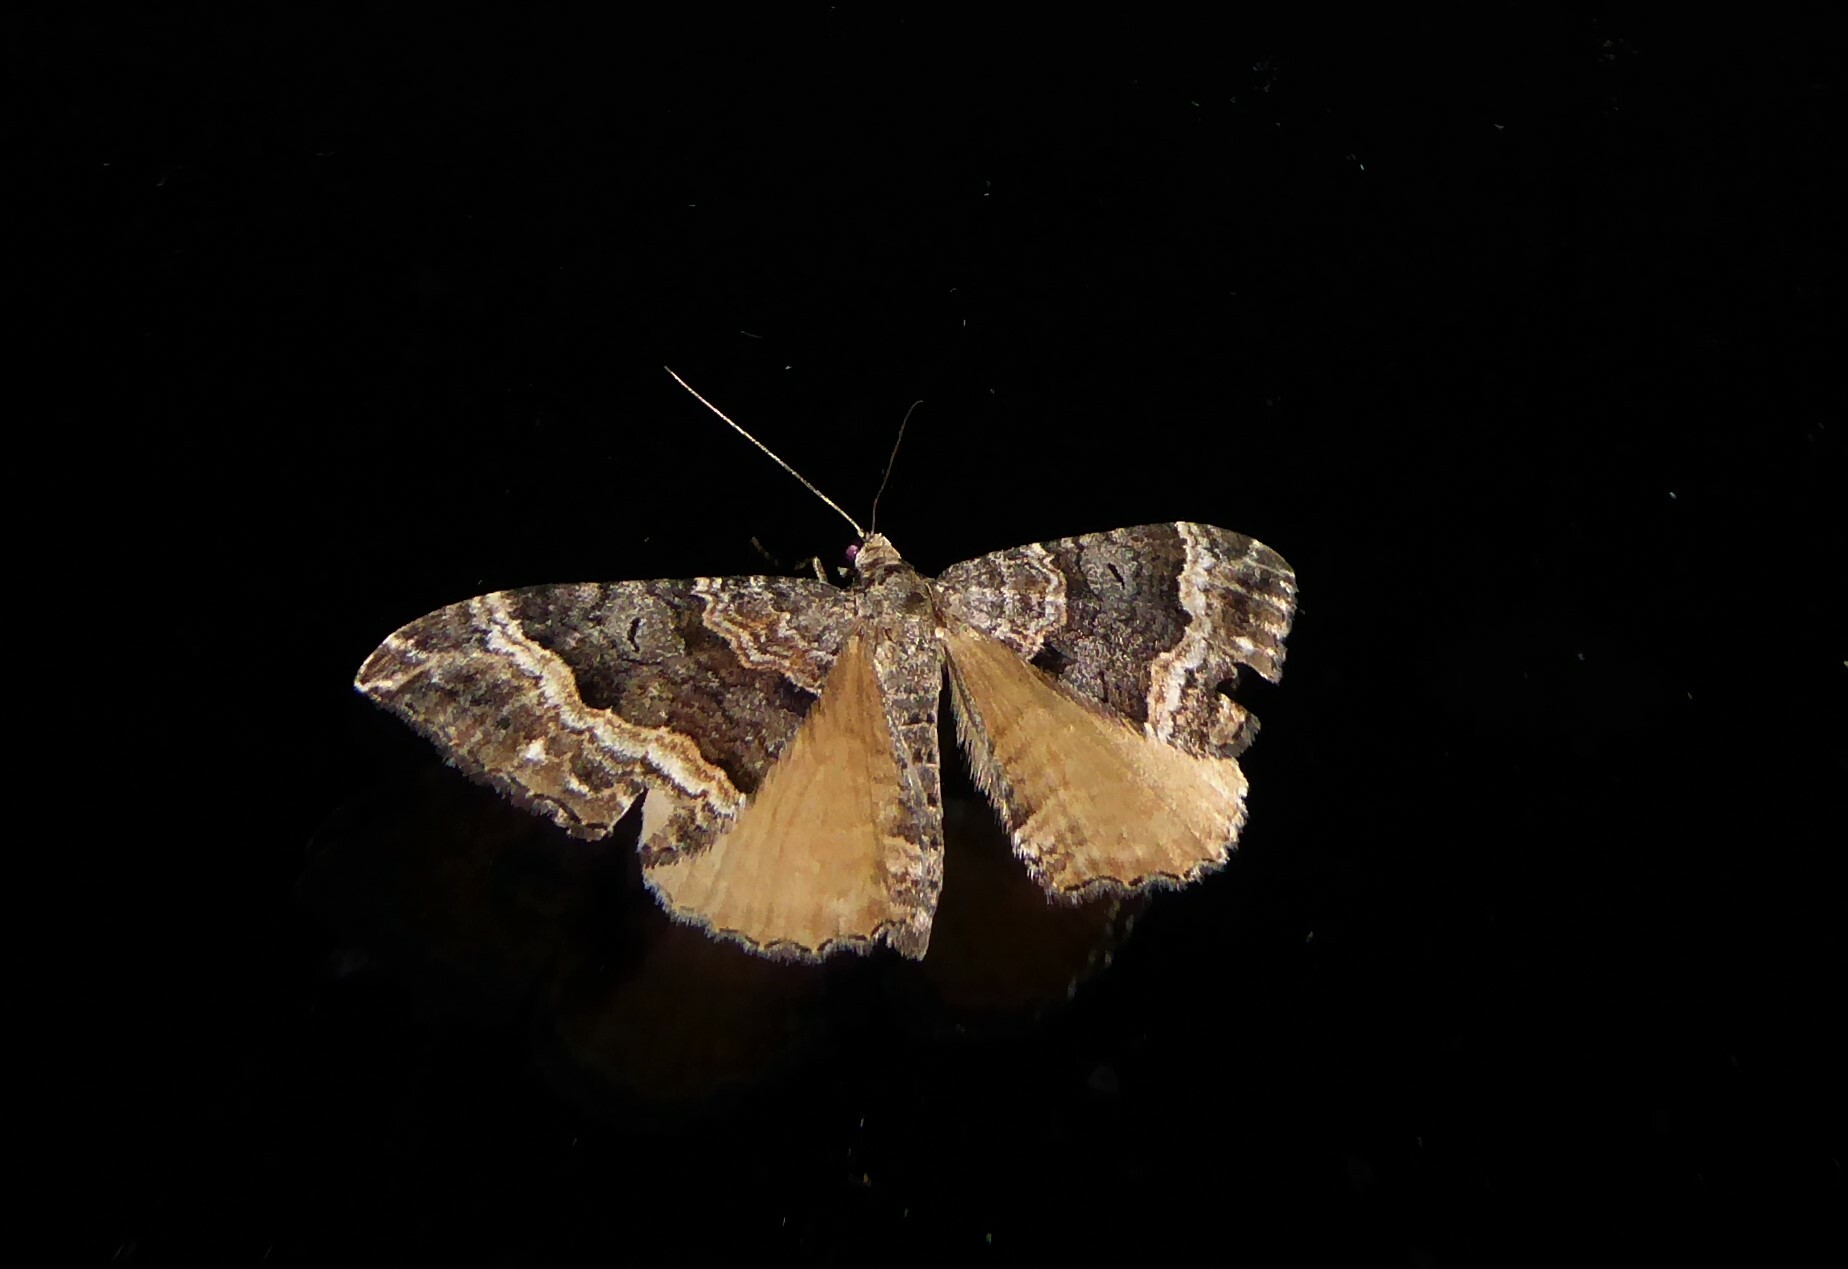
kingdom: Animalia
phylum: Arthropoda
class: Insecta
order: Lepidoptera
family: Geometridae
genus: Hydriomena
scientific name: Hydriomena deltoidata
